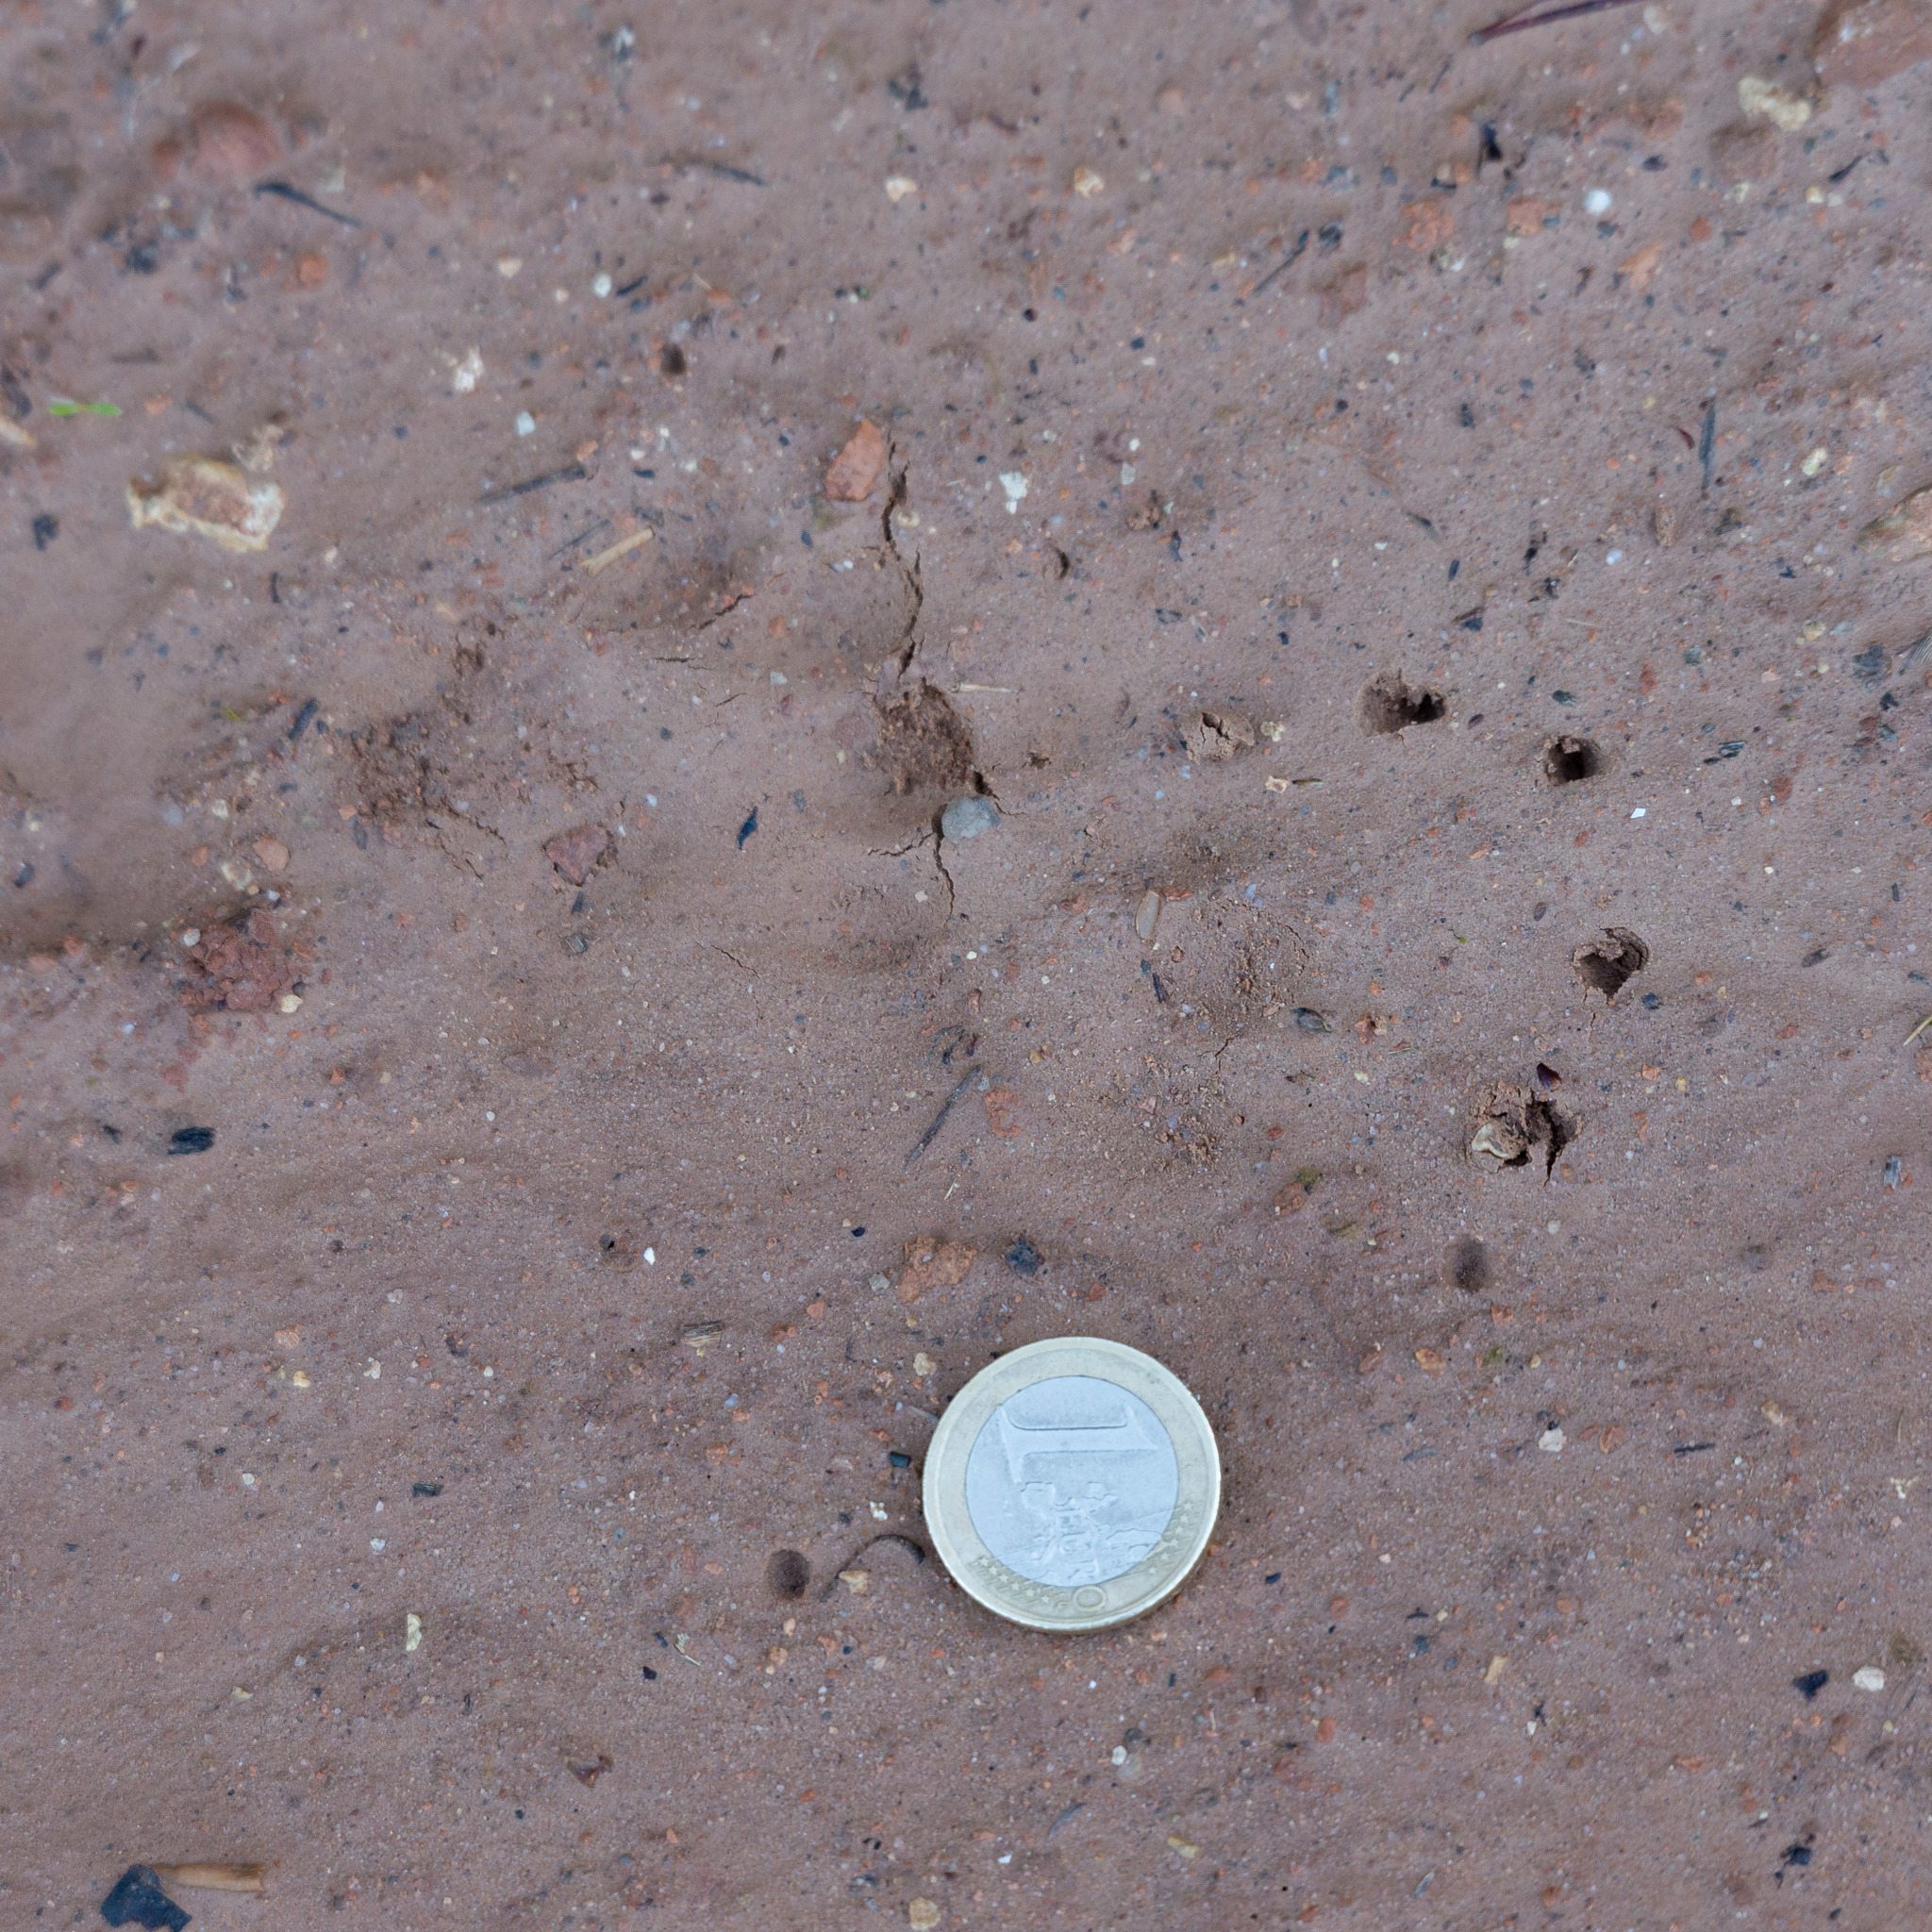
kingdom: Animalia
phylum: Chordata
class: Mammalia
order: Carnivora
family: Mustelidae
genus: Meles
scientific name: Meles meles
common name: Eurasian badger
